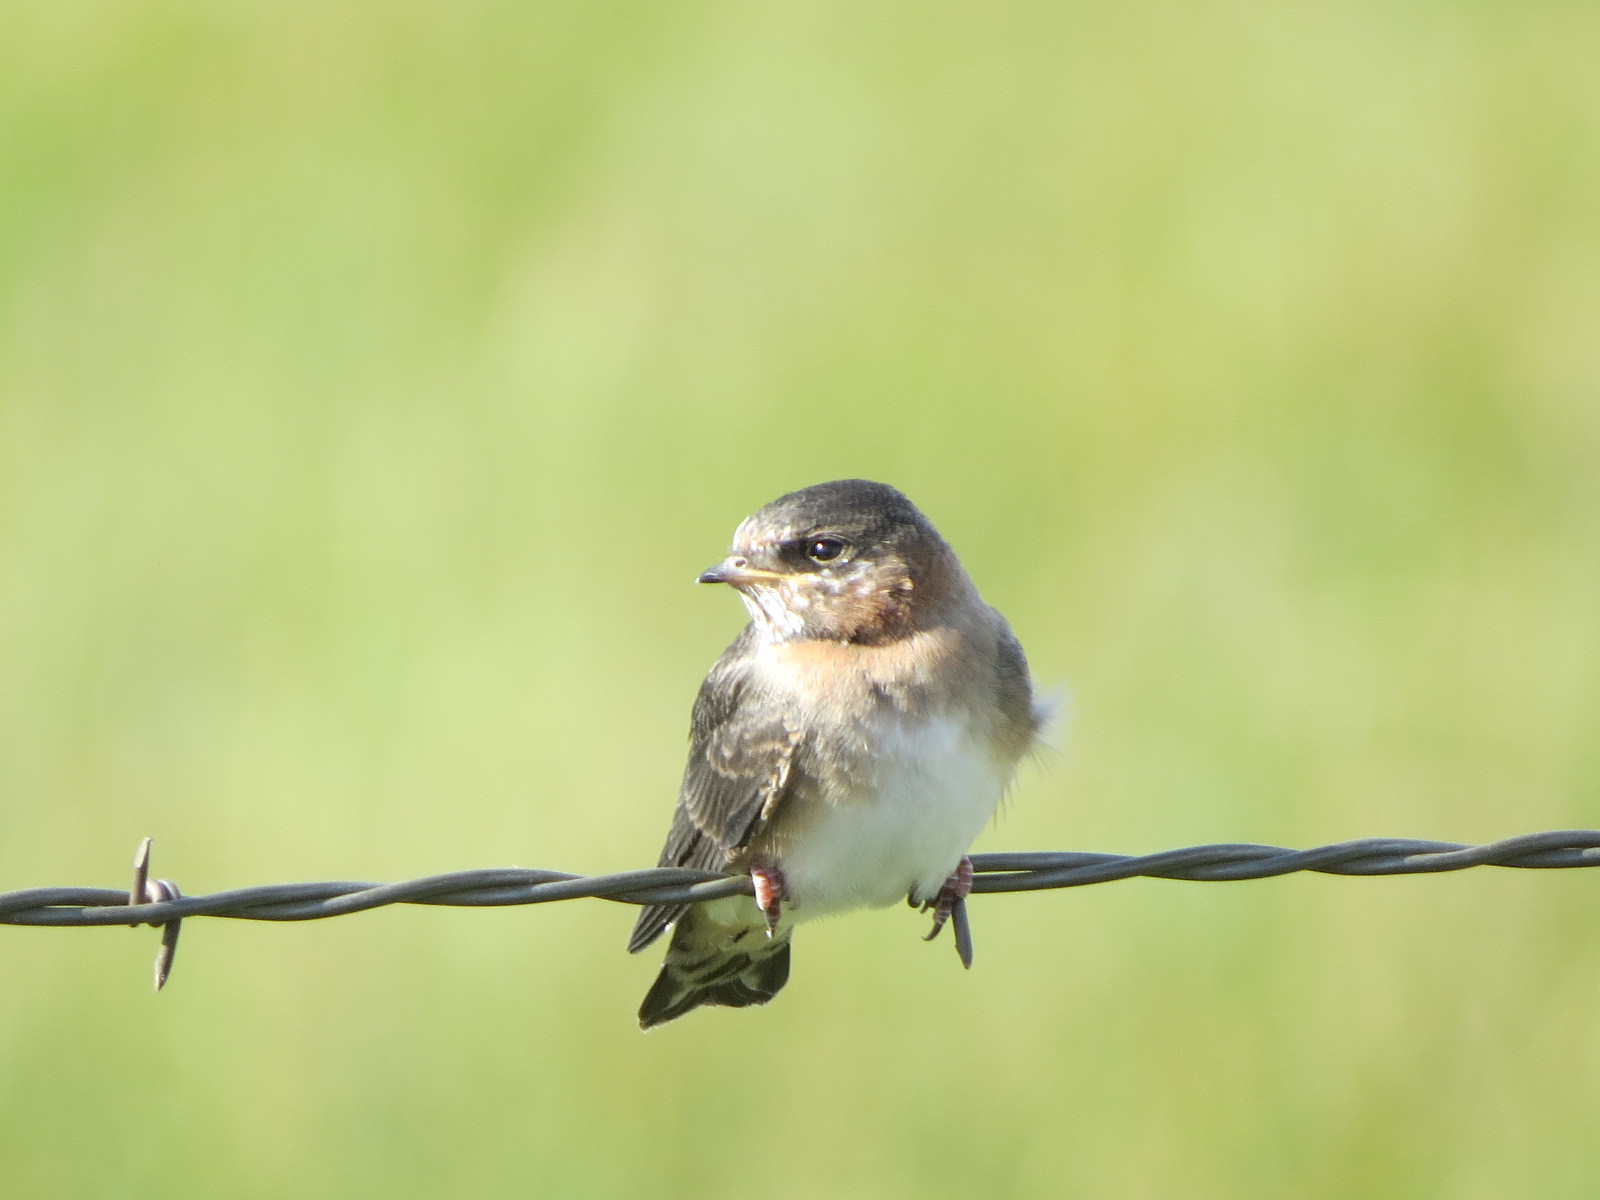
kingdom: Animalia
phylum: Chordata
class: Aves
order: Passeriformes
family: Hirundinidae
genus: Petrochelidon
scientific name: Petrochelidon pyrrhonota
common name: American cliff swallow
